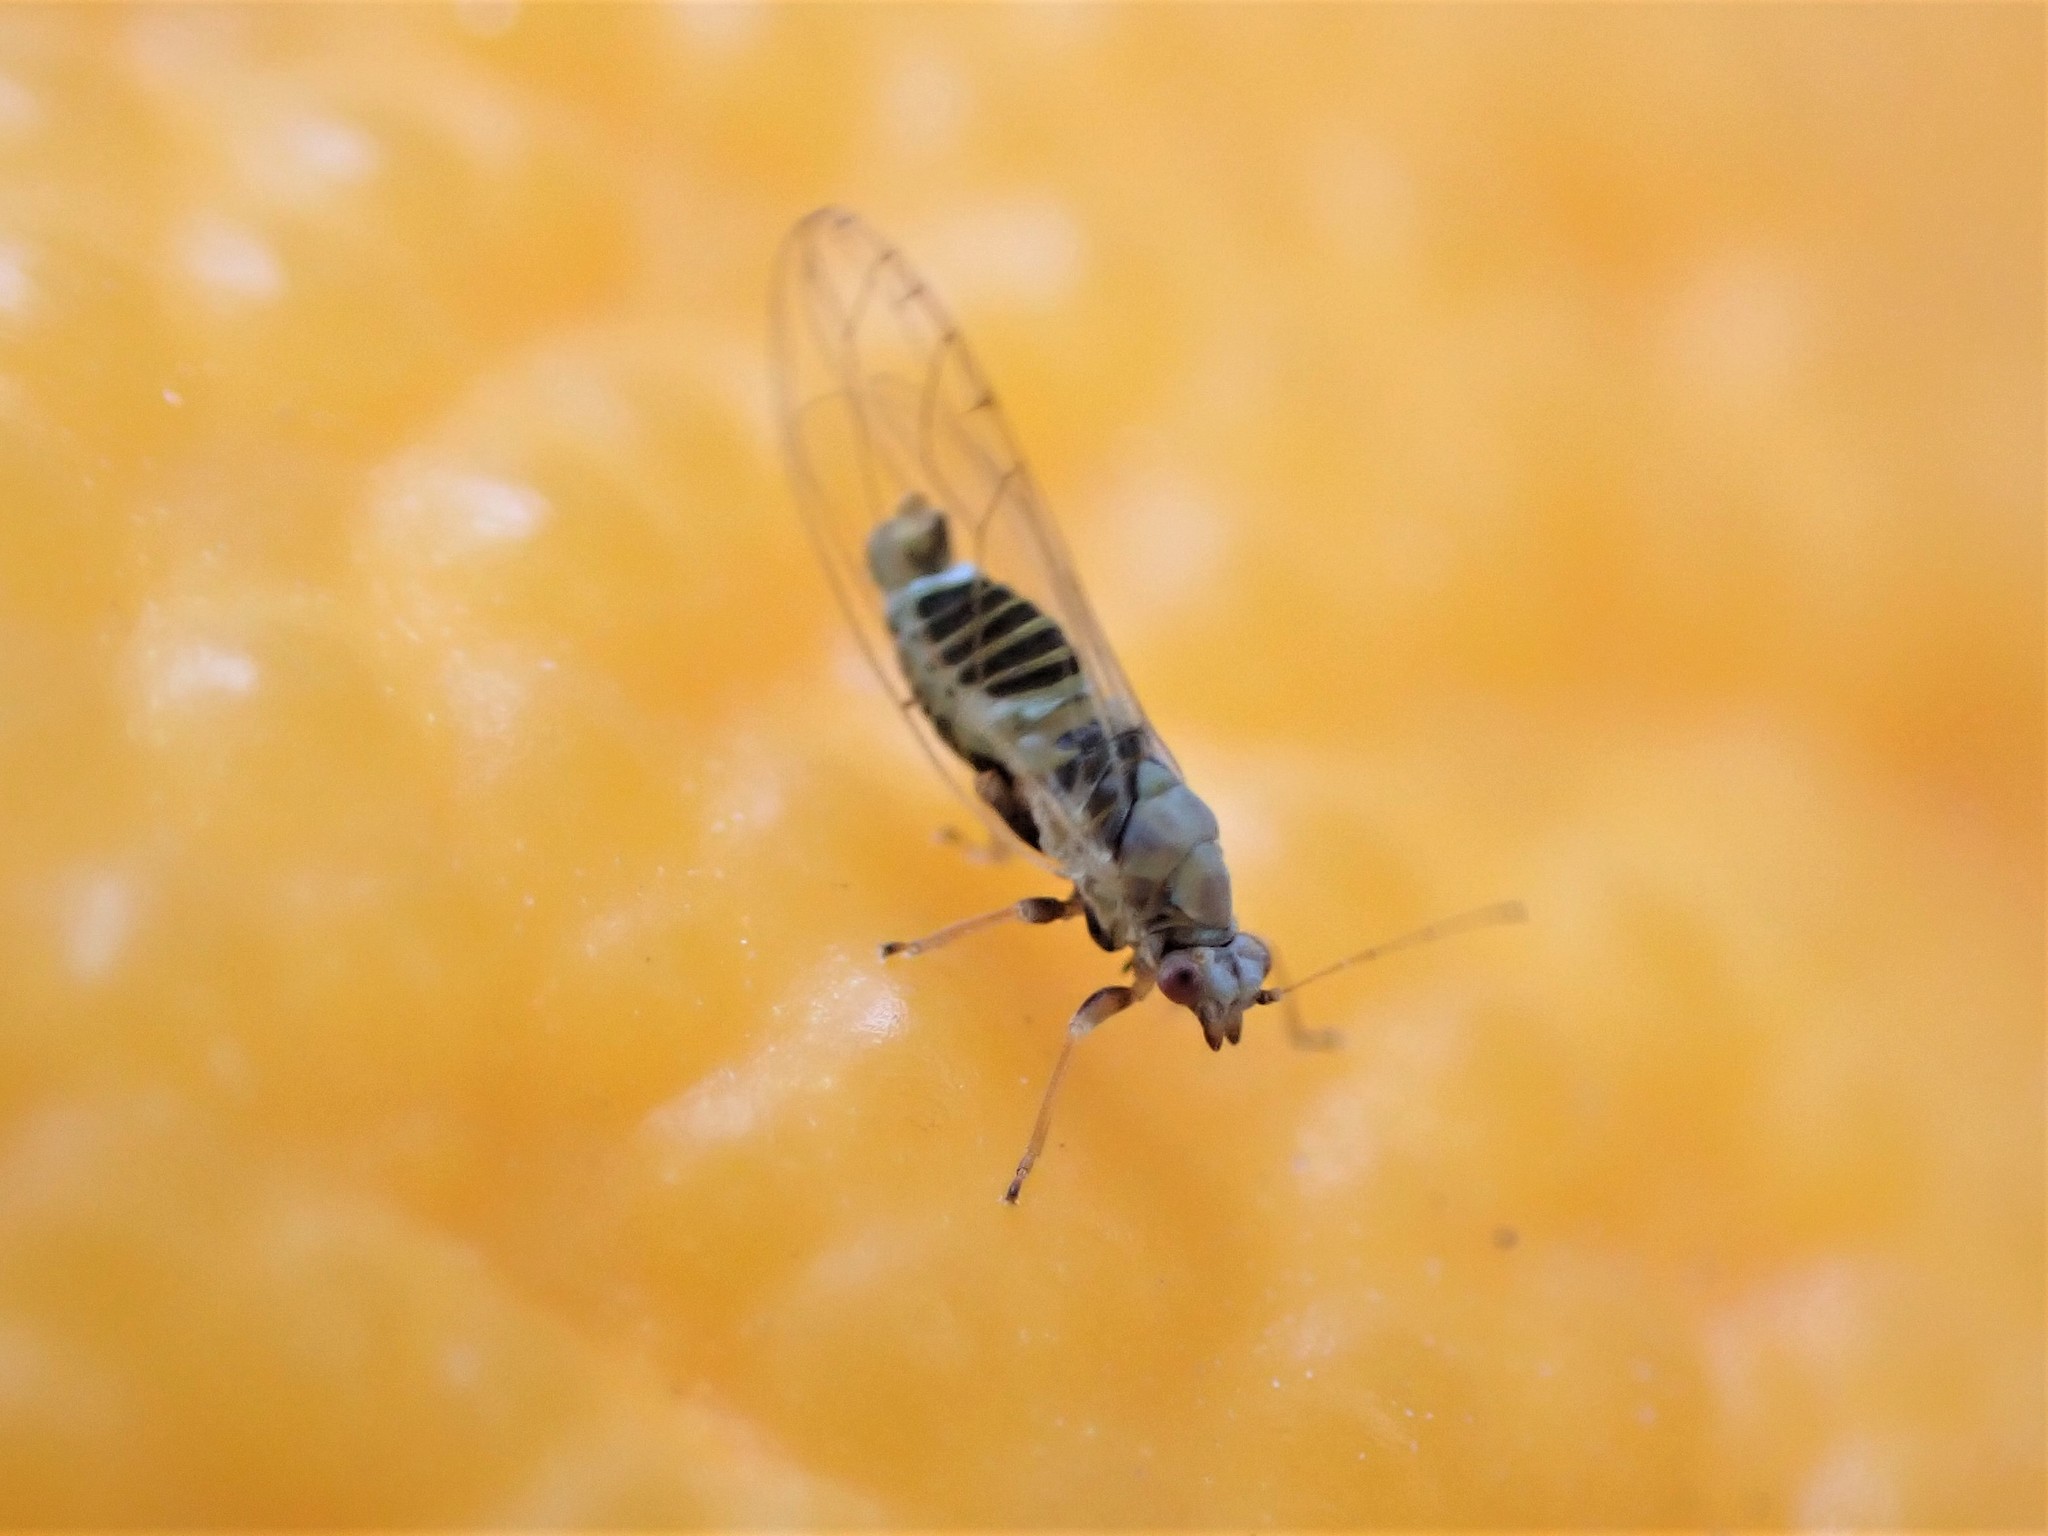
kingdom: Animalia
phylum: Arthropoda
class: Insecta
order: Hemiptera
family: Triozidae
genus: Powellia
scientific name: Powellia vitreoradiata
